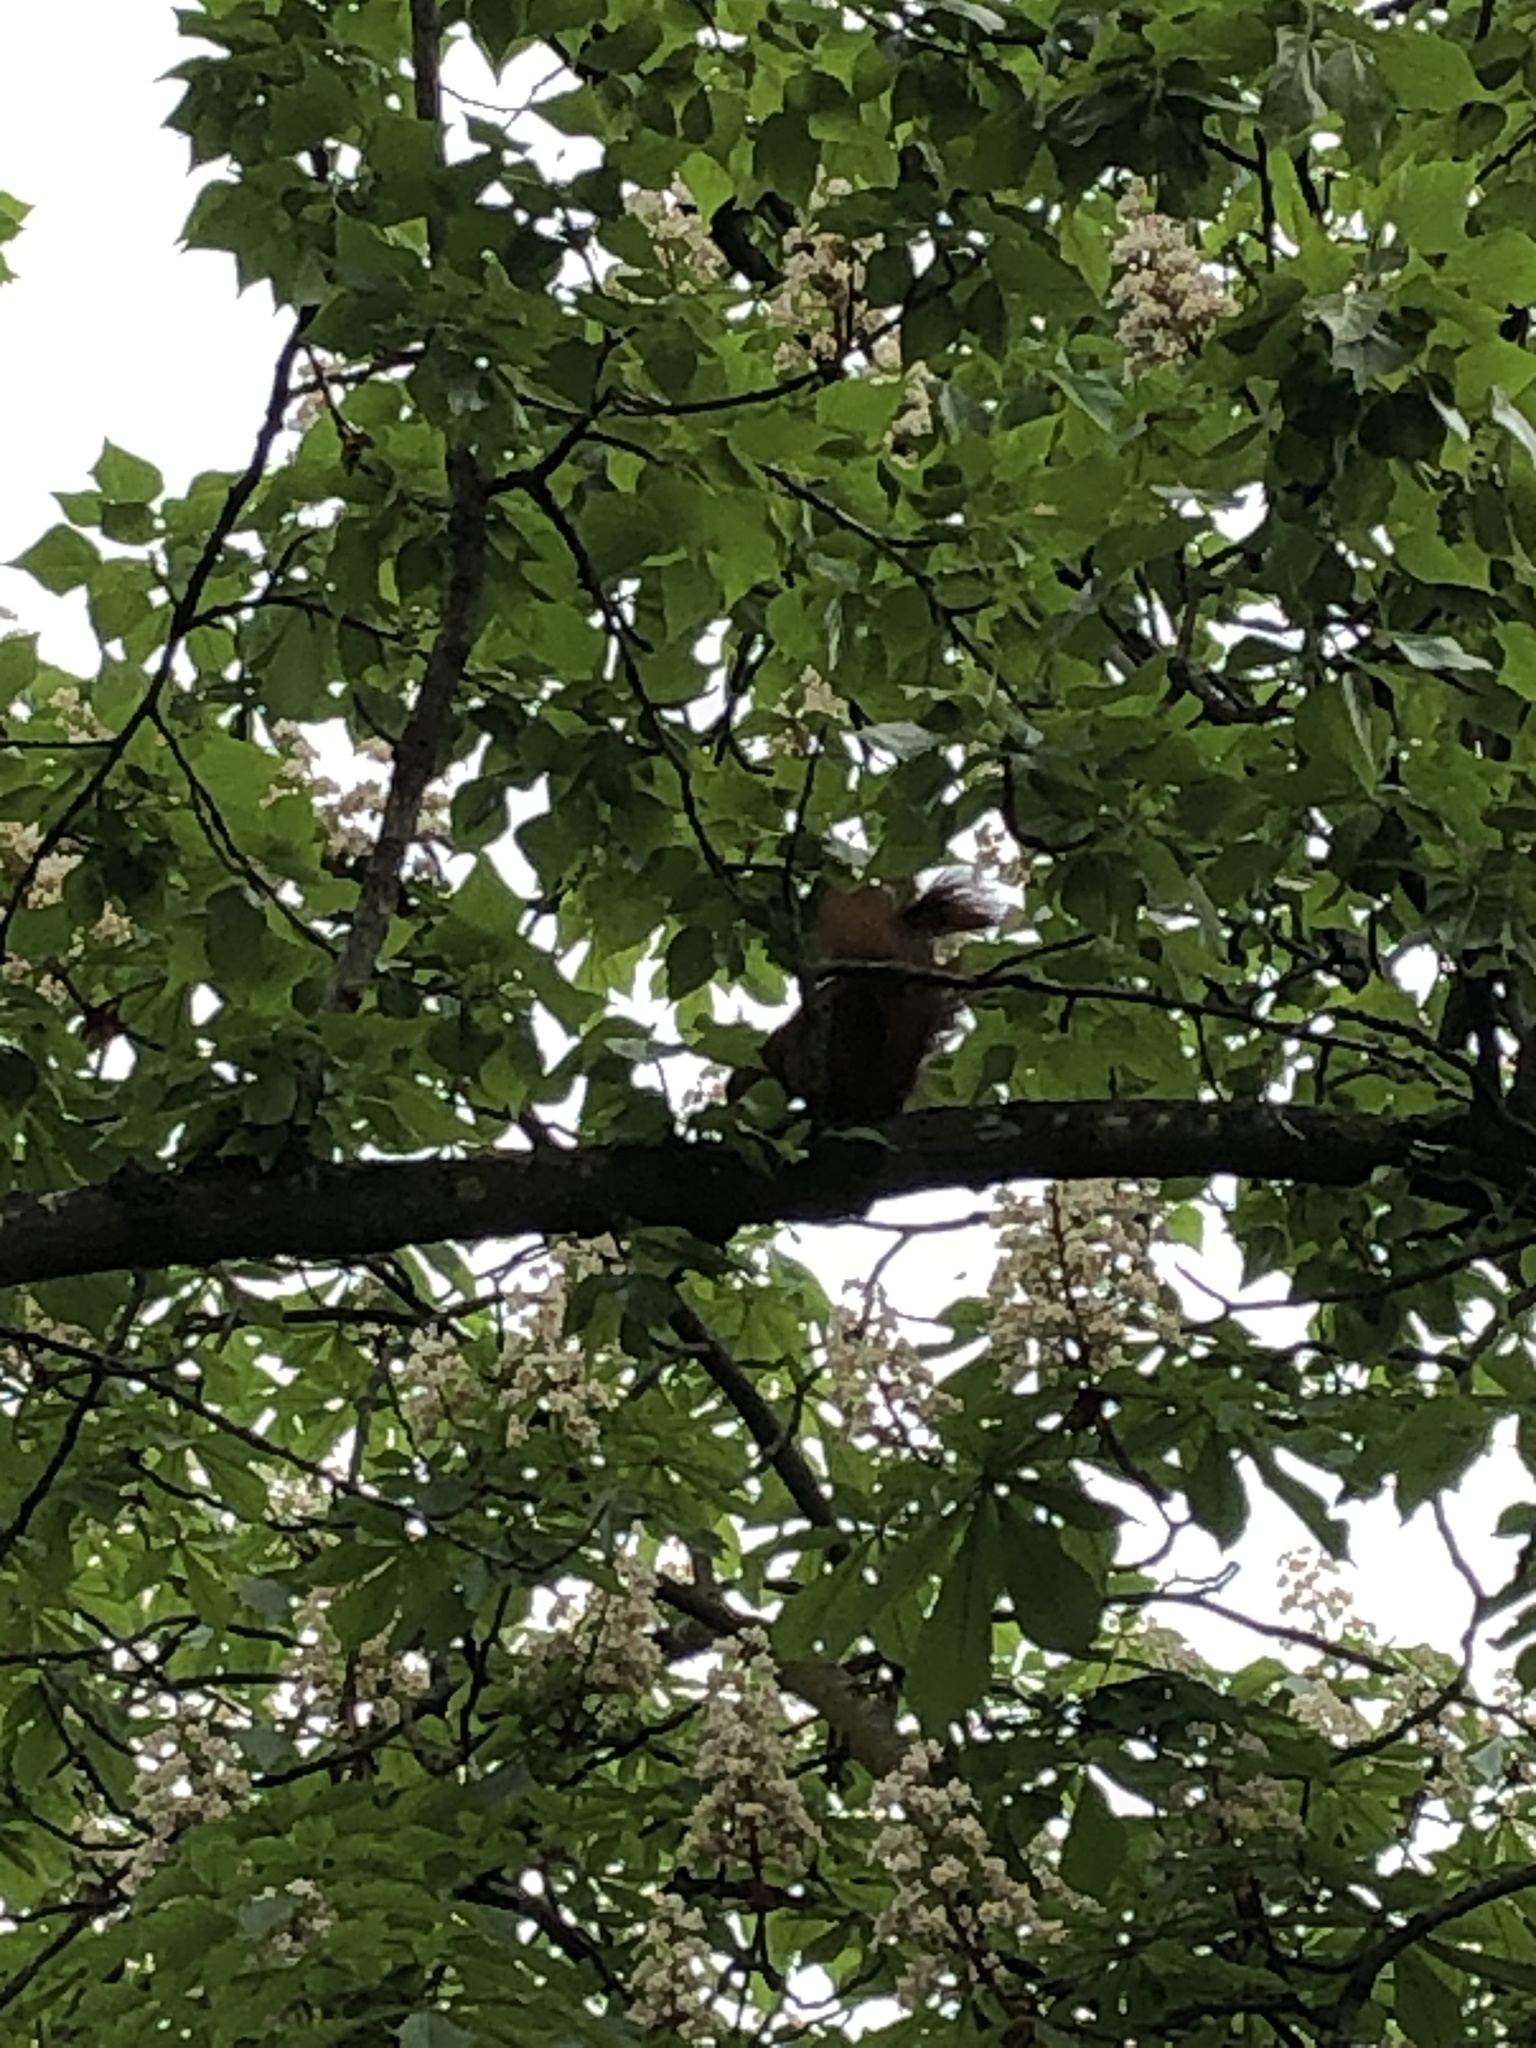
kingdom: Animalia
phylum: Chordata
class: Mammalia
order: Rodentia
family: Sciuridae
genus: Sciurus
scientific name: Sciurus vulgaris
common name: Eurasian red squirrel
